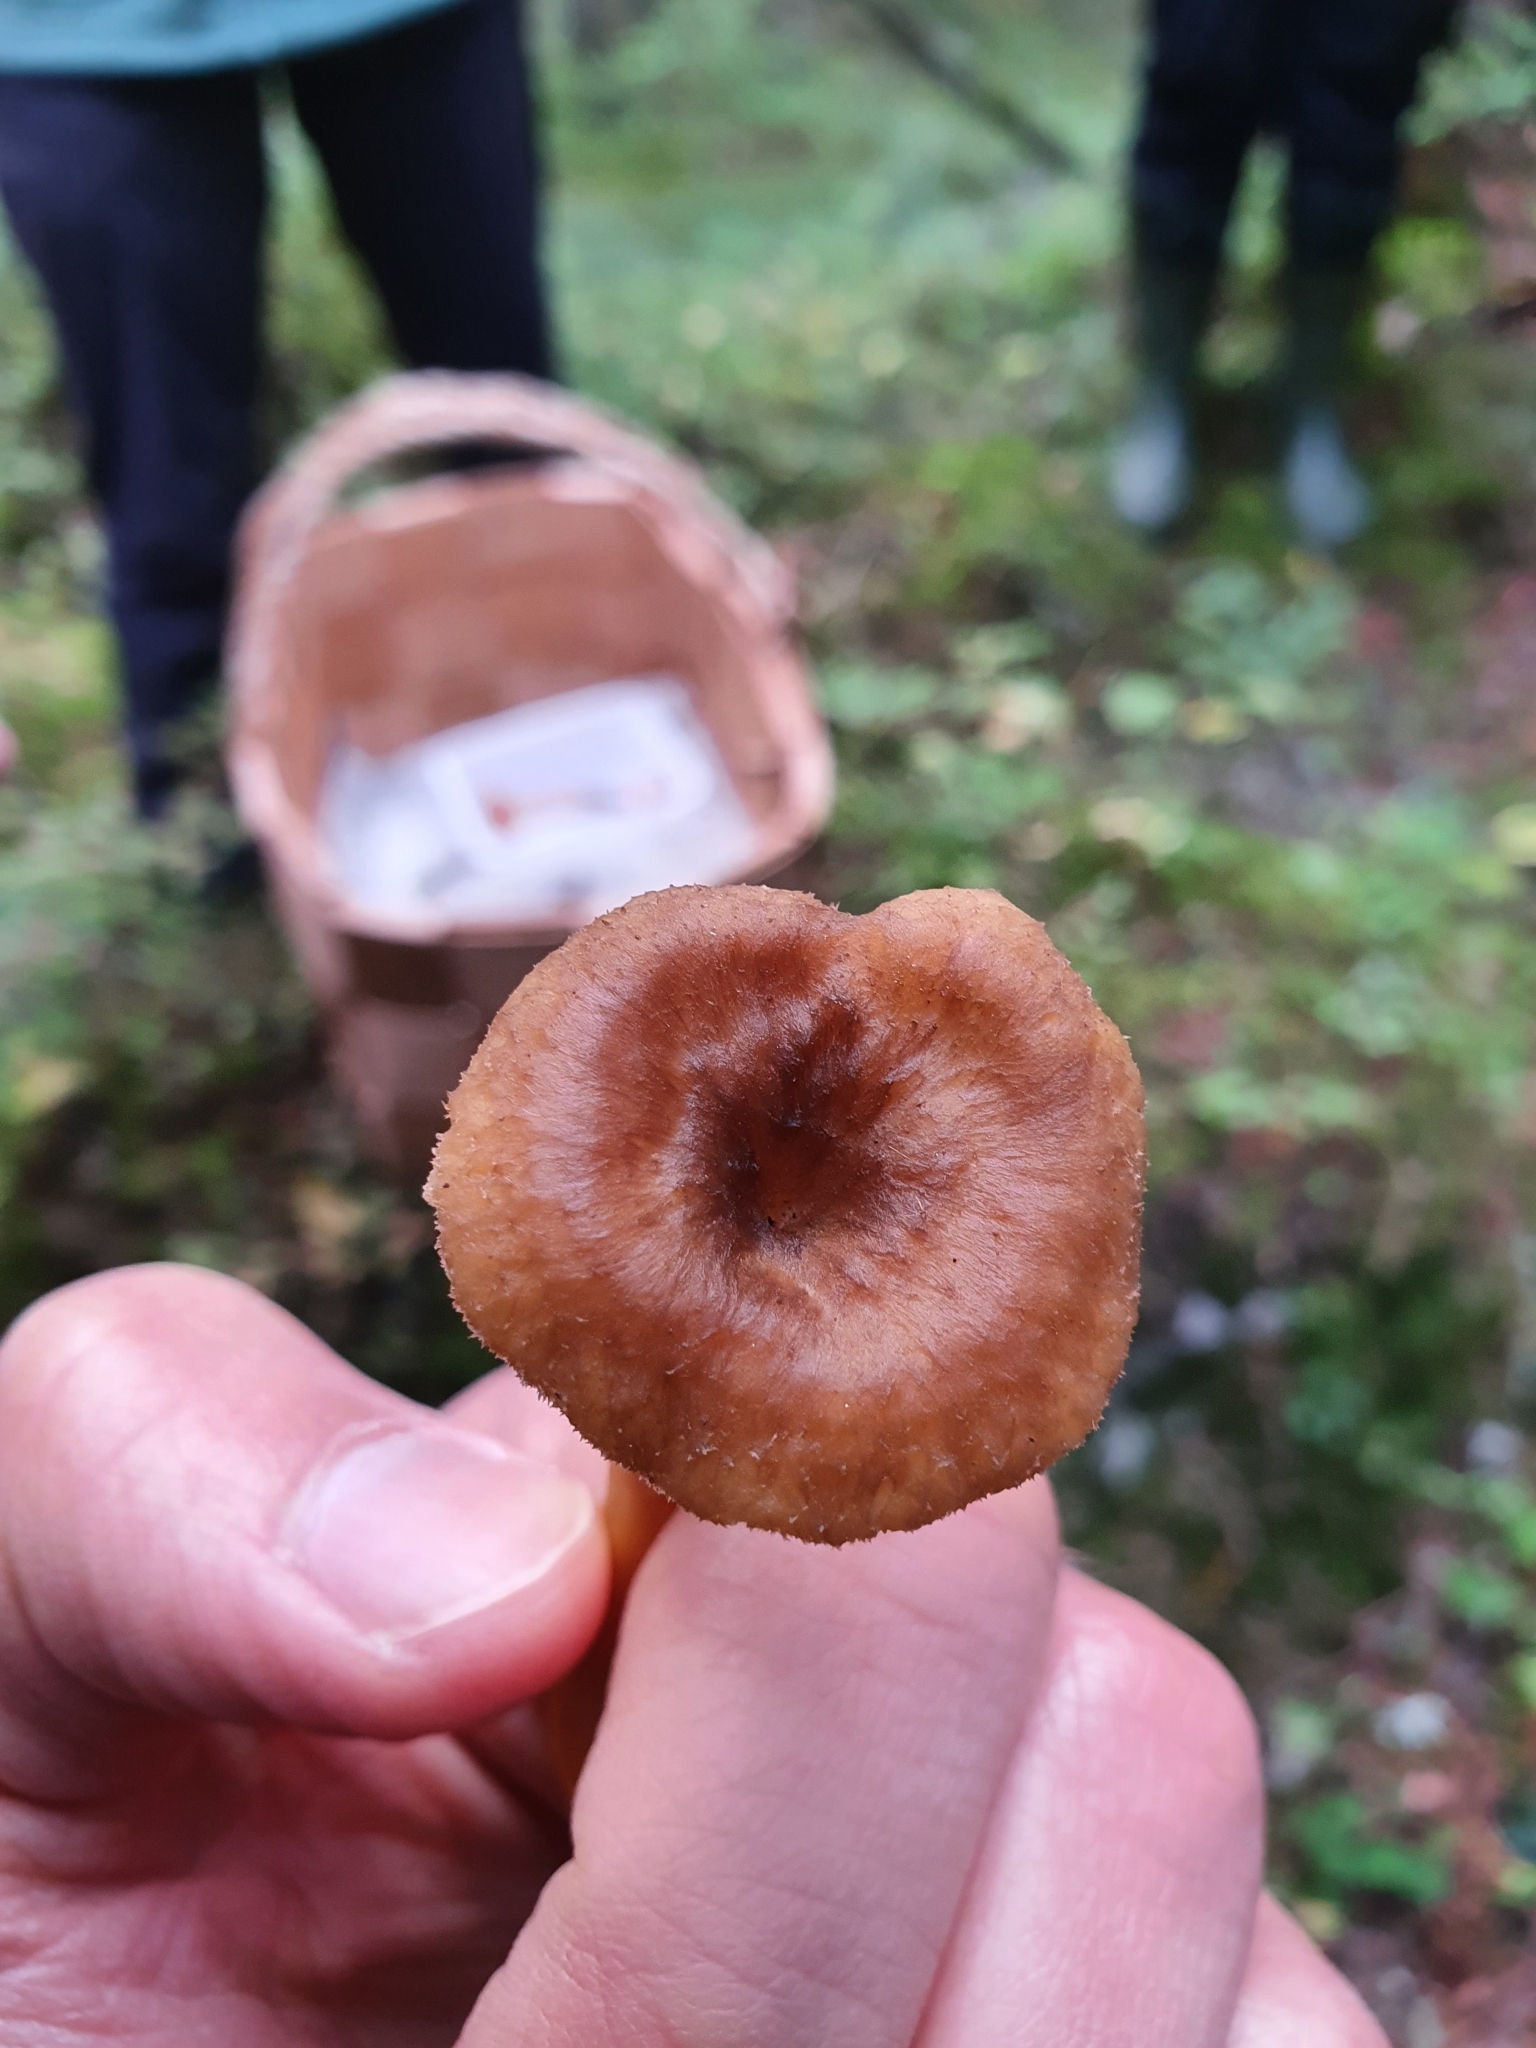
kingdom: Fungi
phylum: Basidiomycota
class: Agaricomycetes
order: Cantharellales
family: Hydnaceae
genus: Craterellus
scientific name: Craterellus tubaeformis
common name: Yellowfoot
